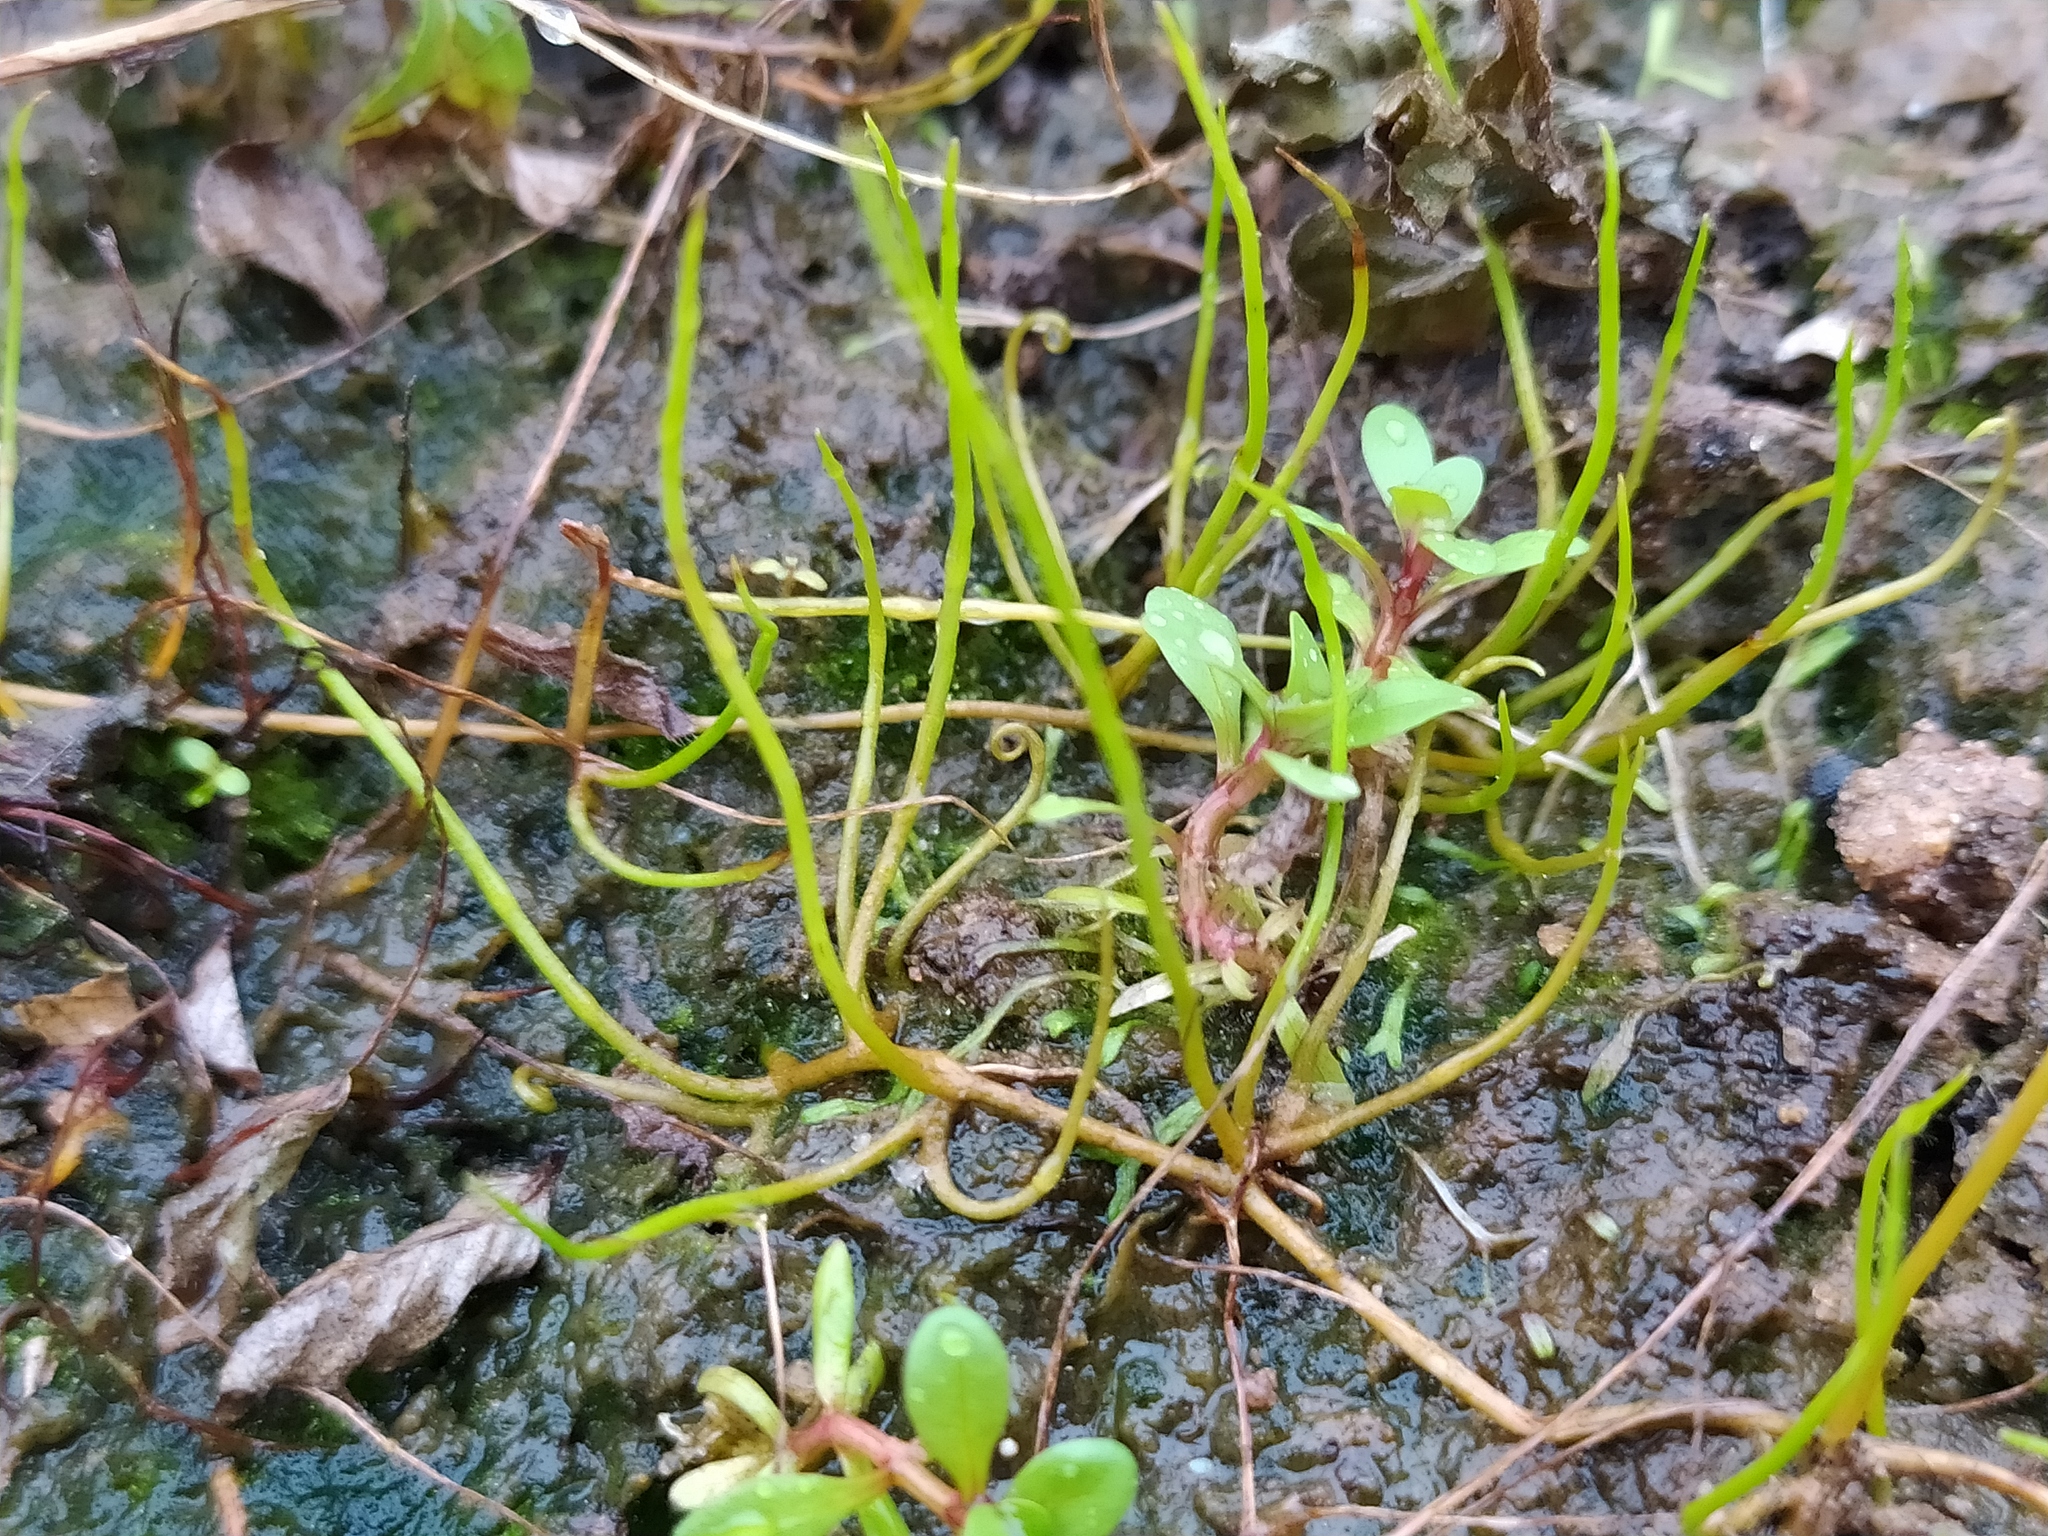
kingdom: Plantae
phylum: Tracheophyta
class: Polypodiopsida
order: Salviniales
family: Marsileaceae
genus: Pilularia
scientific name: Pilularia globulifera
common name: Pillwort
